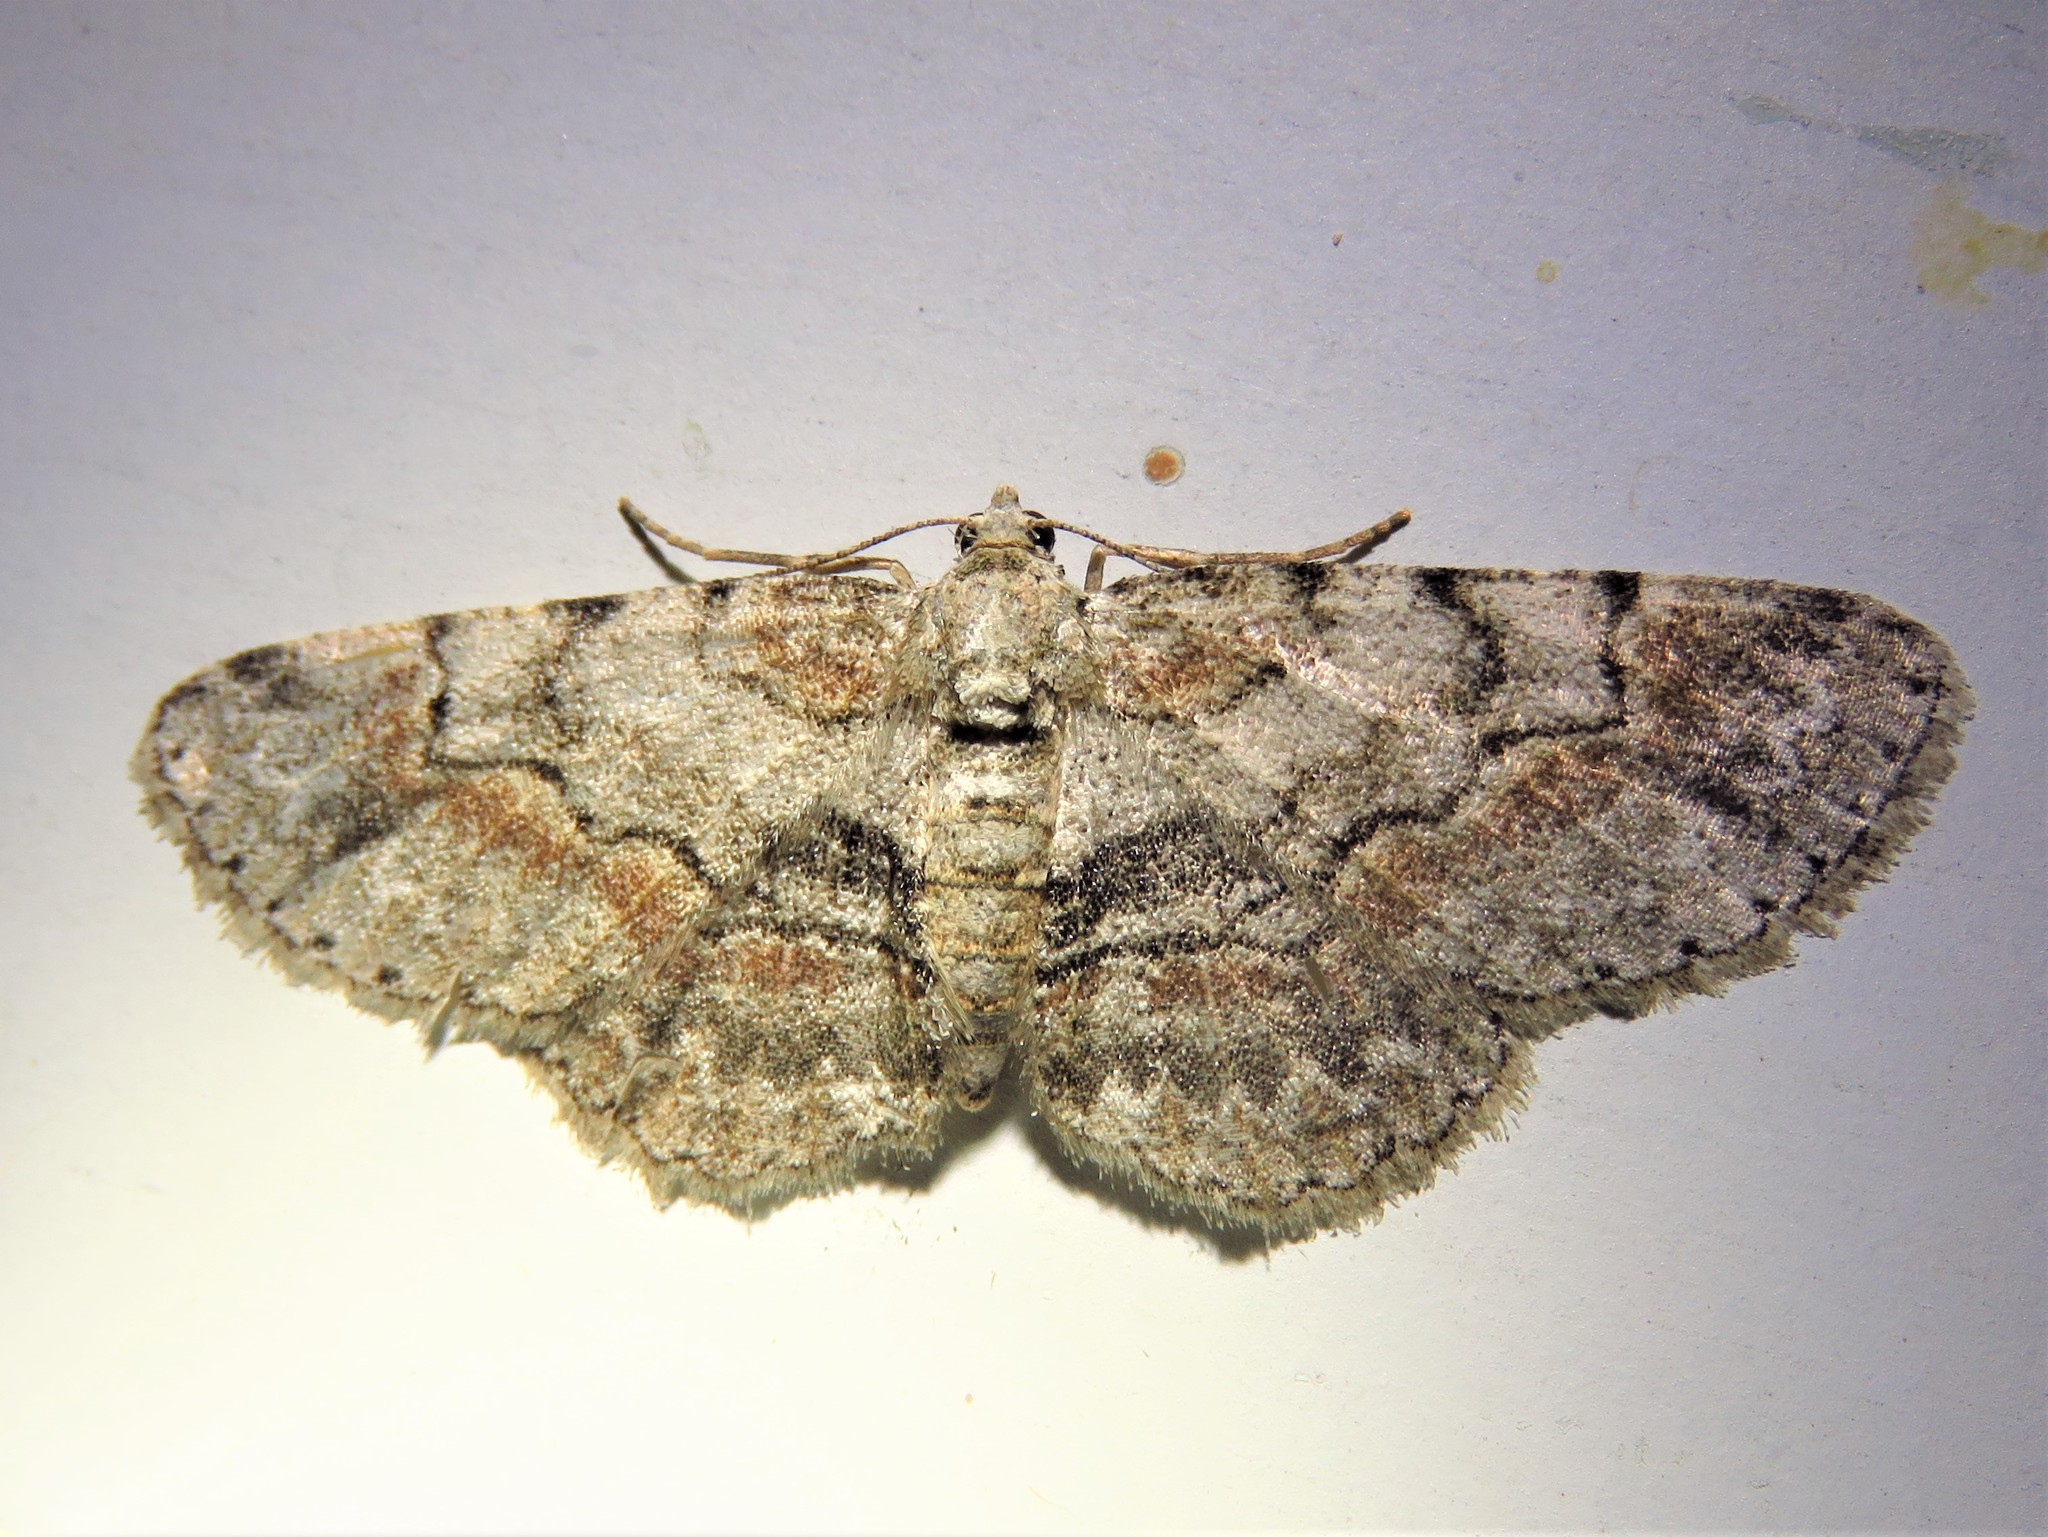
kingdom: Animalia
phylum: Arthropoda
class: Insecta
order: Lepidoptera
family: Geometridae
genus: Glenoides
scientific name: Glenoides texanaria
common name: Texas gray
